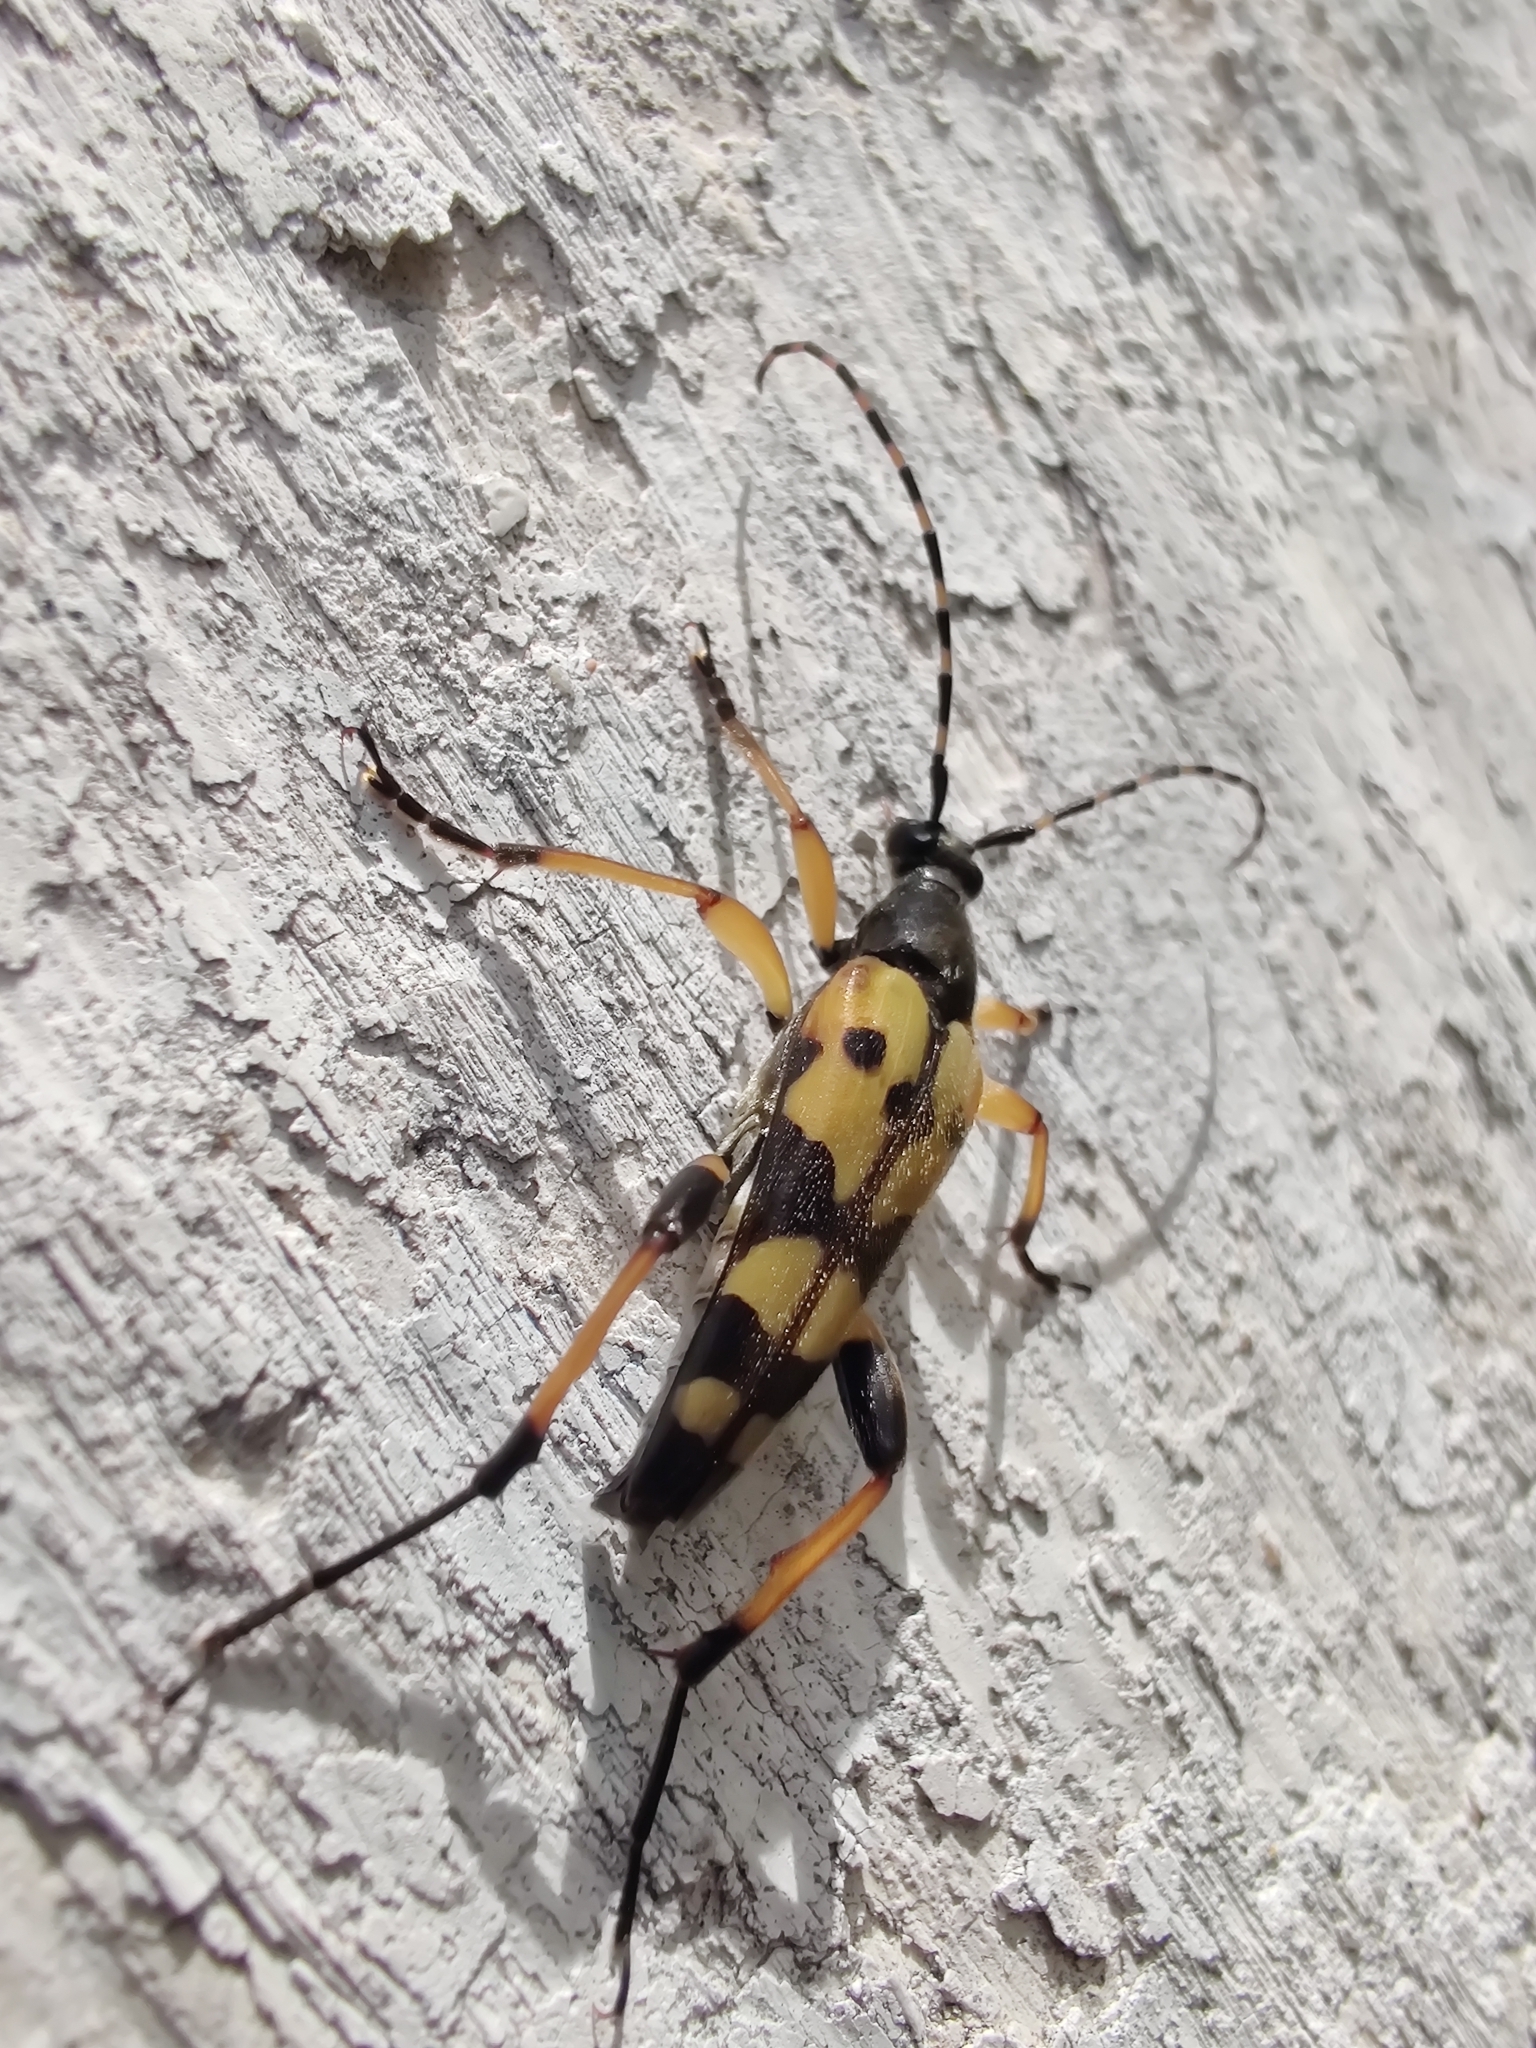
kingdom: Animalia
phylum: Arthropoda
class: Insecta
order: Coleoptera
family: Cerambycidae
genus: Rutpela
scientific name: Rutpela maculata
